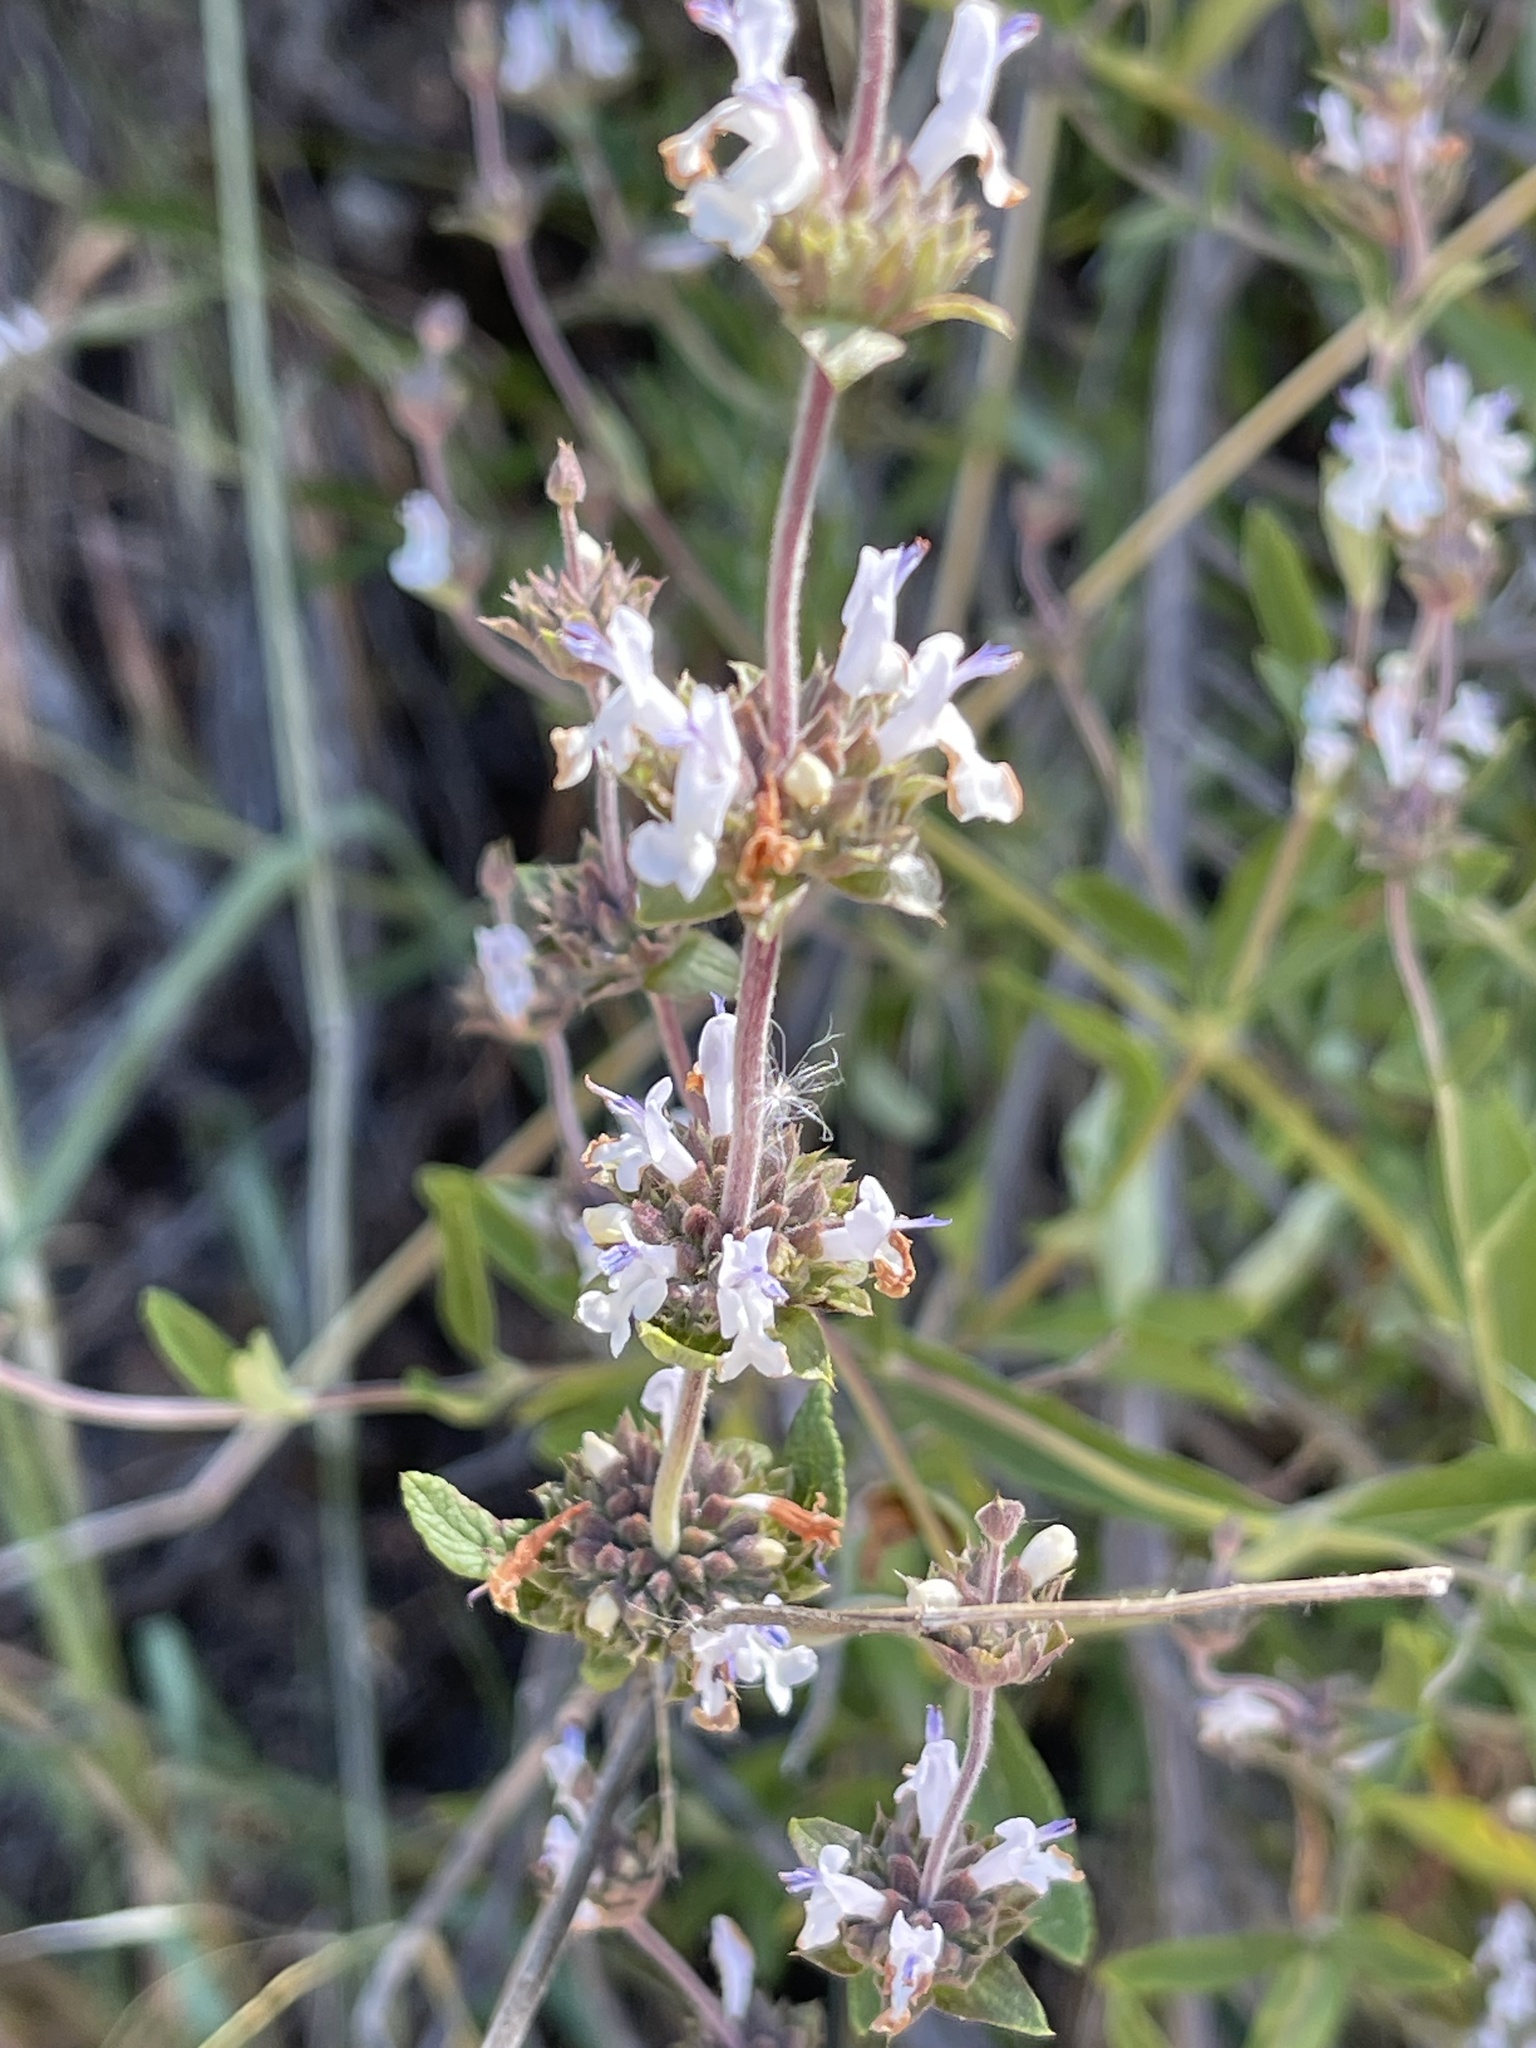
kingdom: Plantae
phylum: Tracheophyta
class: Magnoliopsida
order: Lamiales
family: Lamiaceae
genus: Salvia
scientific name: Salvia mellifera
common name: Black sage
